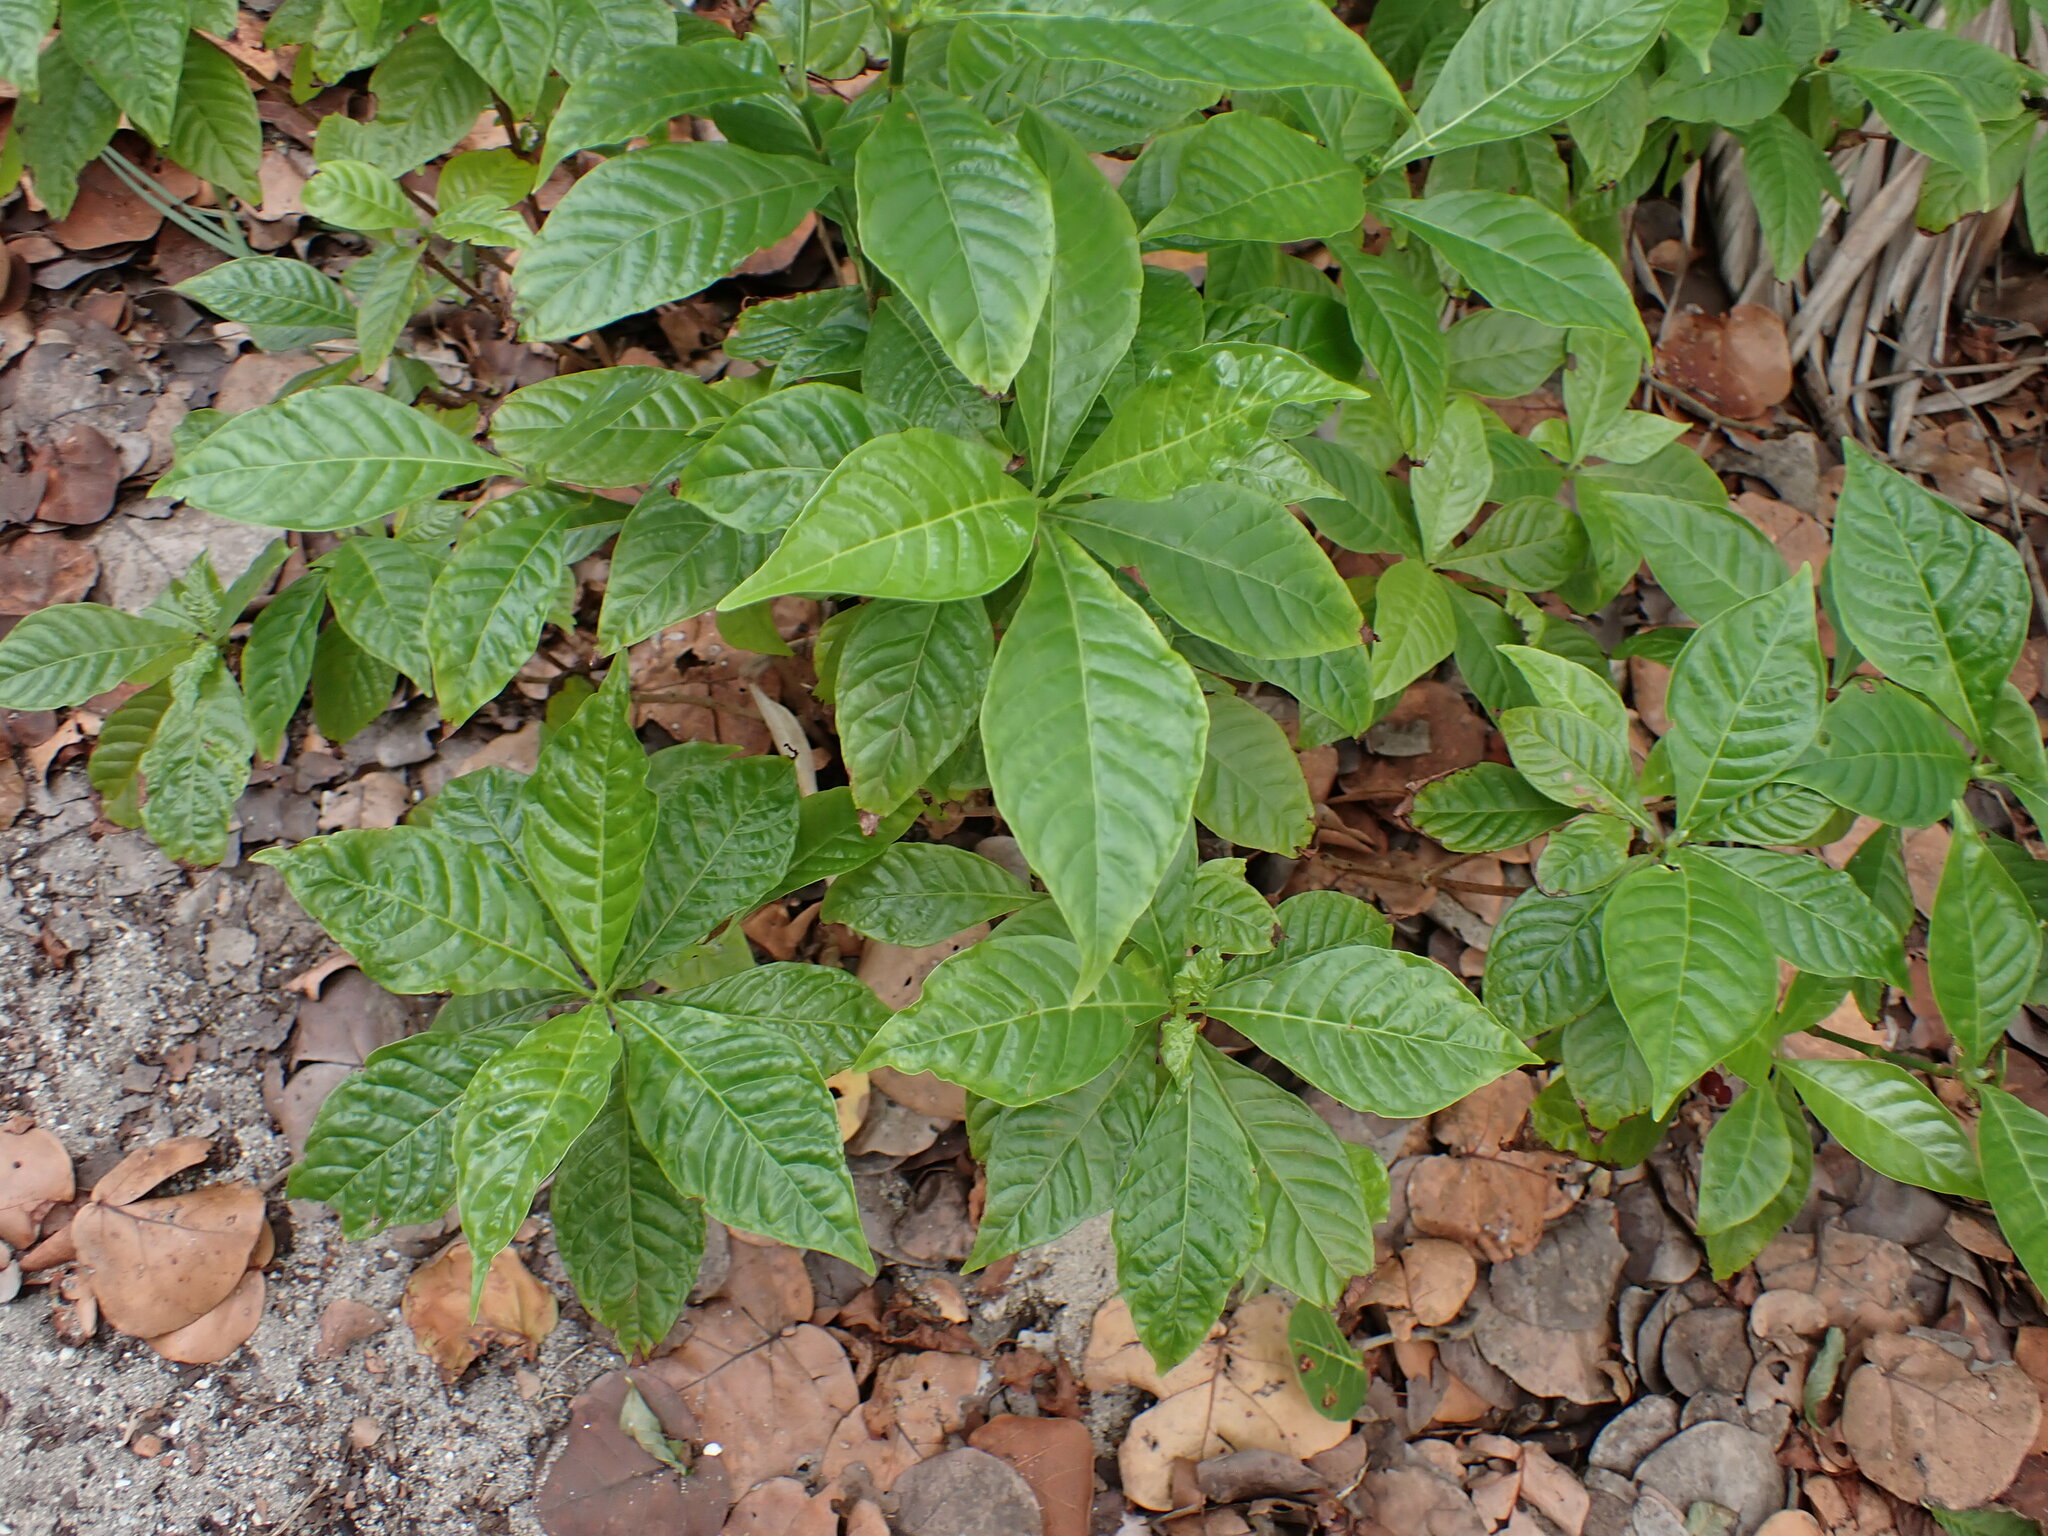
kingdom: Plantae
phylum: Tracheophyta
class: Magnoliopsida
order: Gentianales
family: Rubiaceae
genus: Psychotria
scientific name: Psychotria nervosa
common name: Bastard cankerberry
